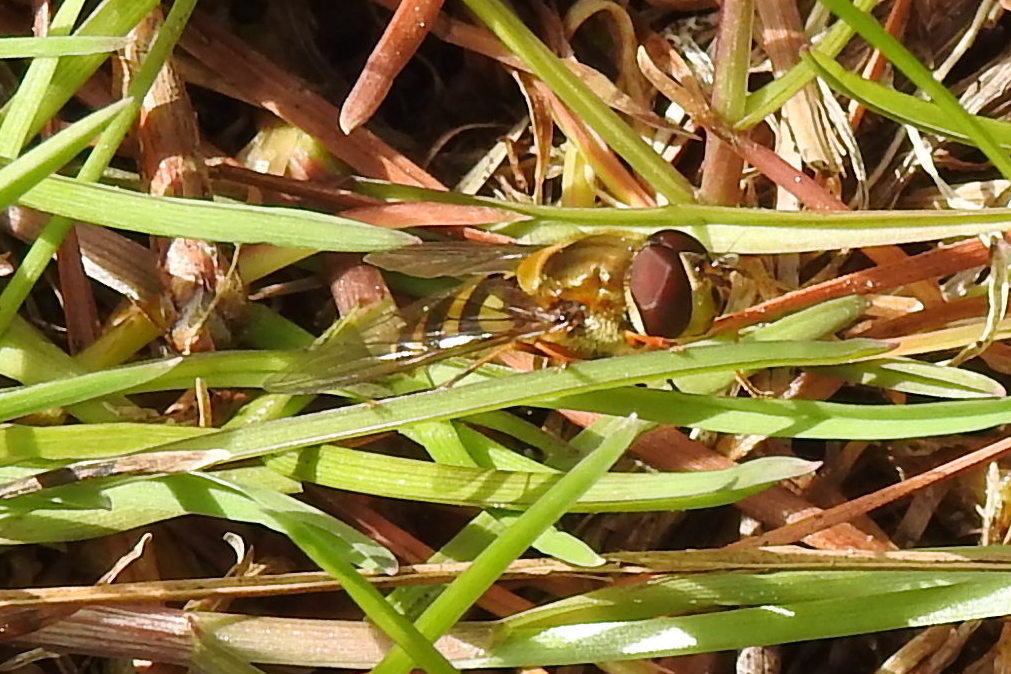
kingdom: Animalia
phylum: Arthropoda
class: Insecta
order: Diptera
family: Syrphidae
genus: Syrphus
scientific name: Syrphus
